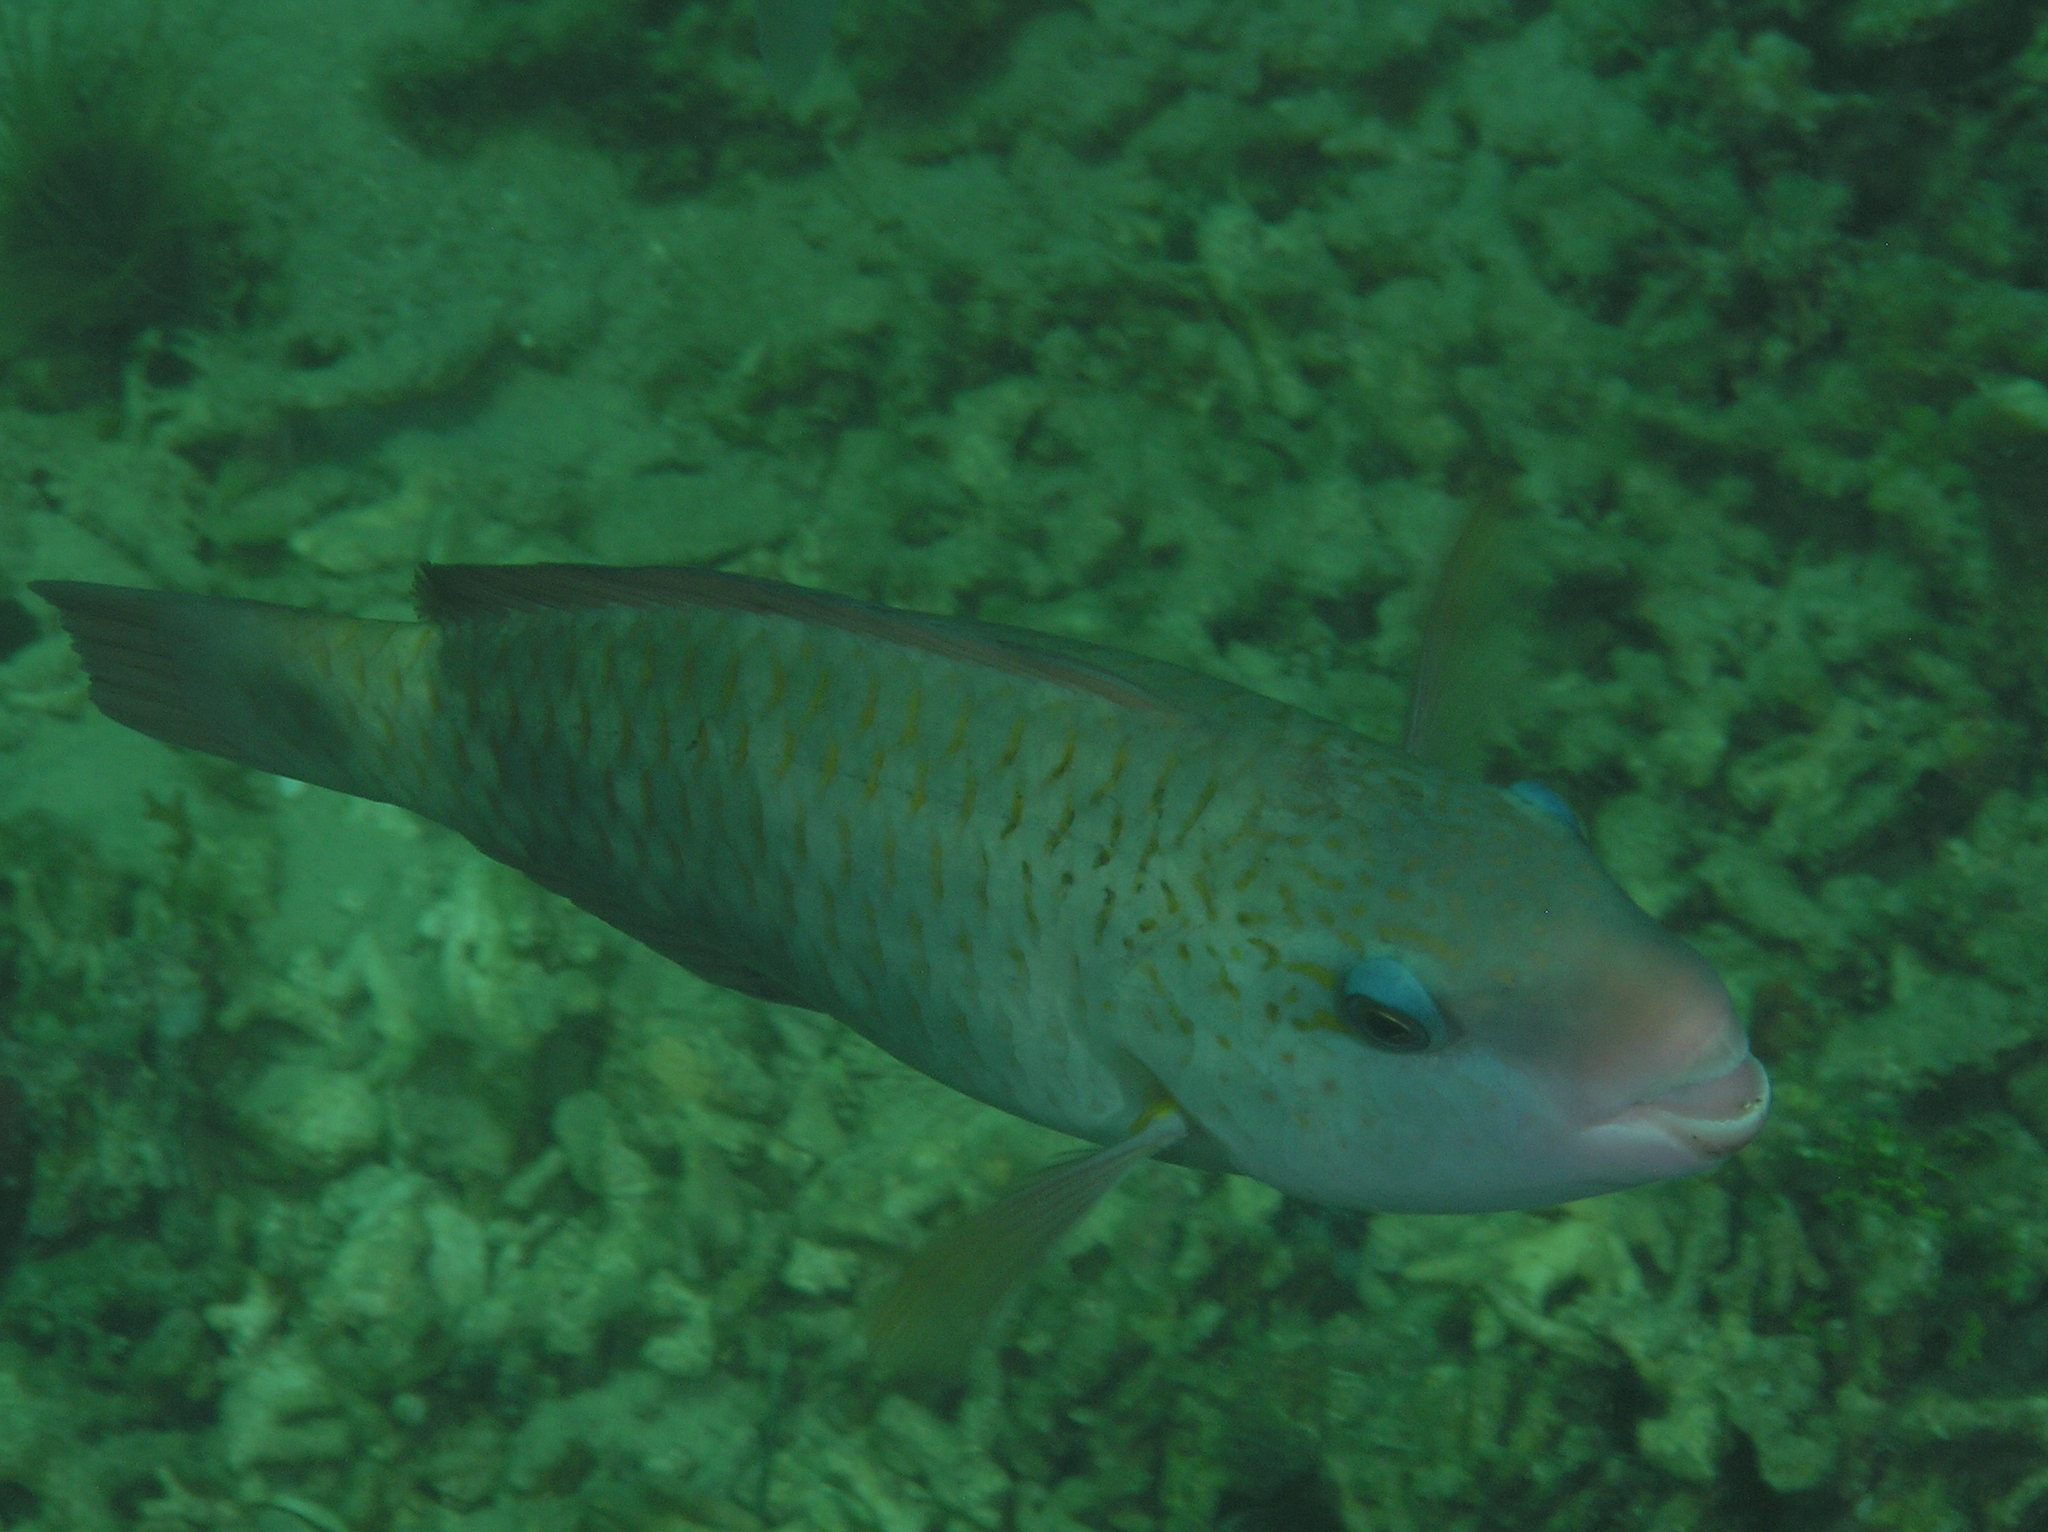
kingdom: Animalia
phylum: Chordata
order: Perciformes
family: Scaridae
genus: Chlorurus
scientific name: Chlorurus spilurus
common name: Bullethead parrotfish
